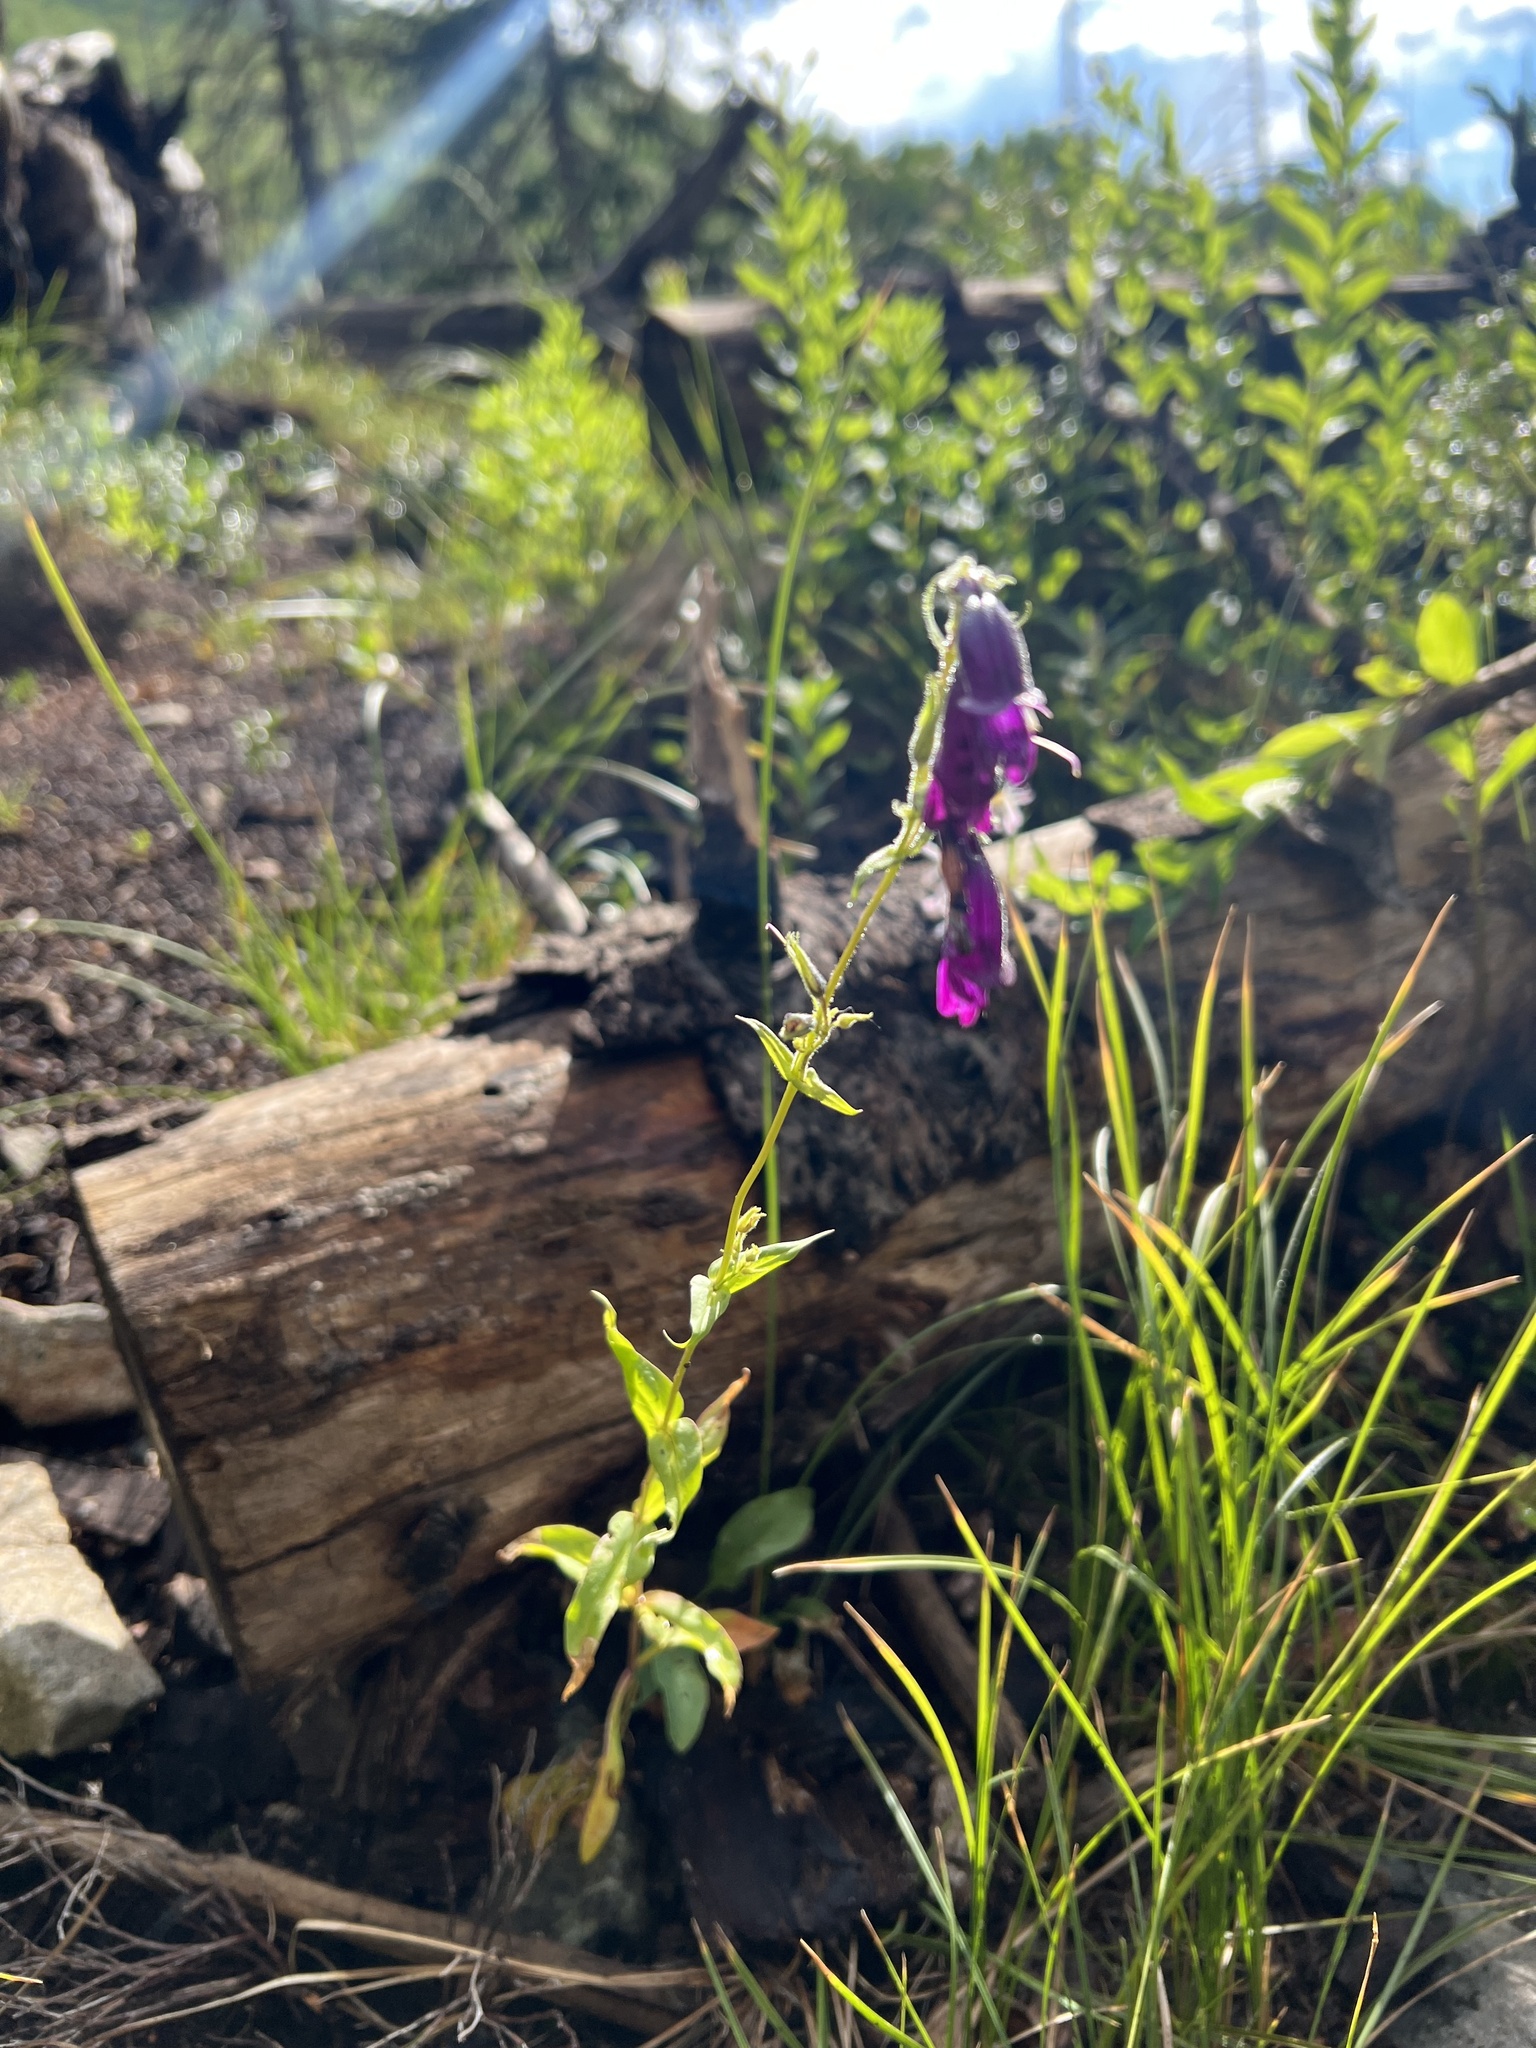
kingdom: Plantae
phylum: Tracheophyta
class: Magnoliopsida
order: Lamiales
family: Plantaginaceae
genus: Penstemon
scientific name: Penstemon whippleanus
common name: Whipple's penstemon
